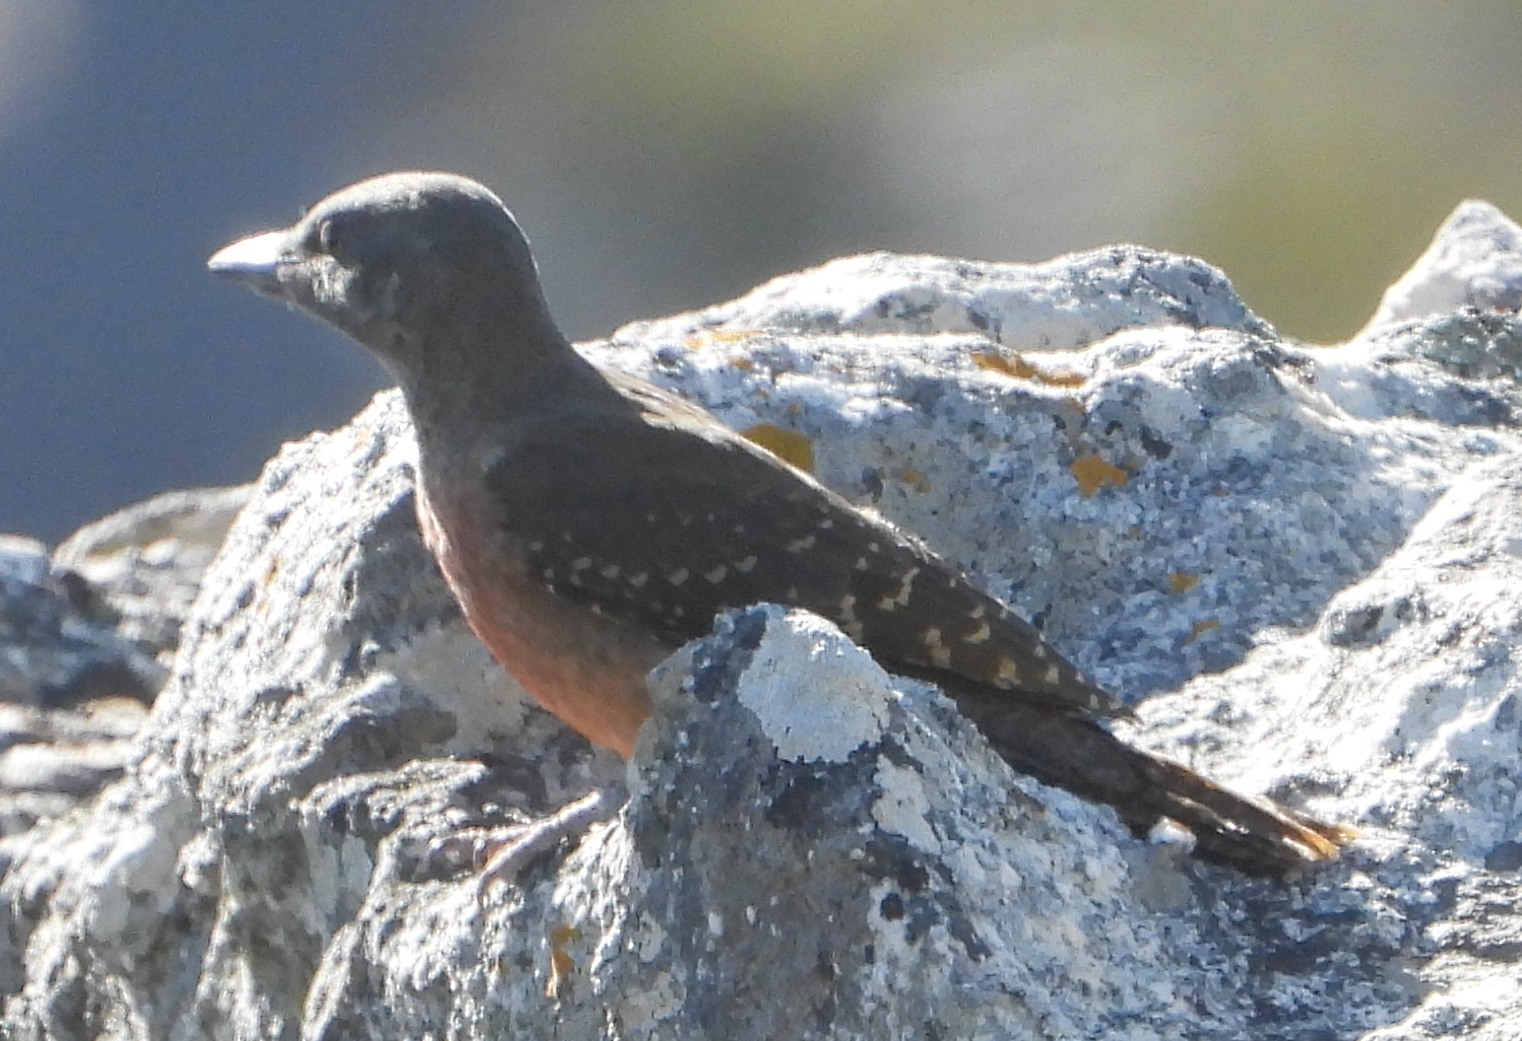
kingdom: Animalia
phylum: Chordata
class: Aves
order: Piciformes
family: Picidae
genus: Geocolaptes
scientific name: Geocolaptes olivaceus
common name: Ground woodpecker
